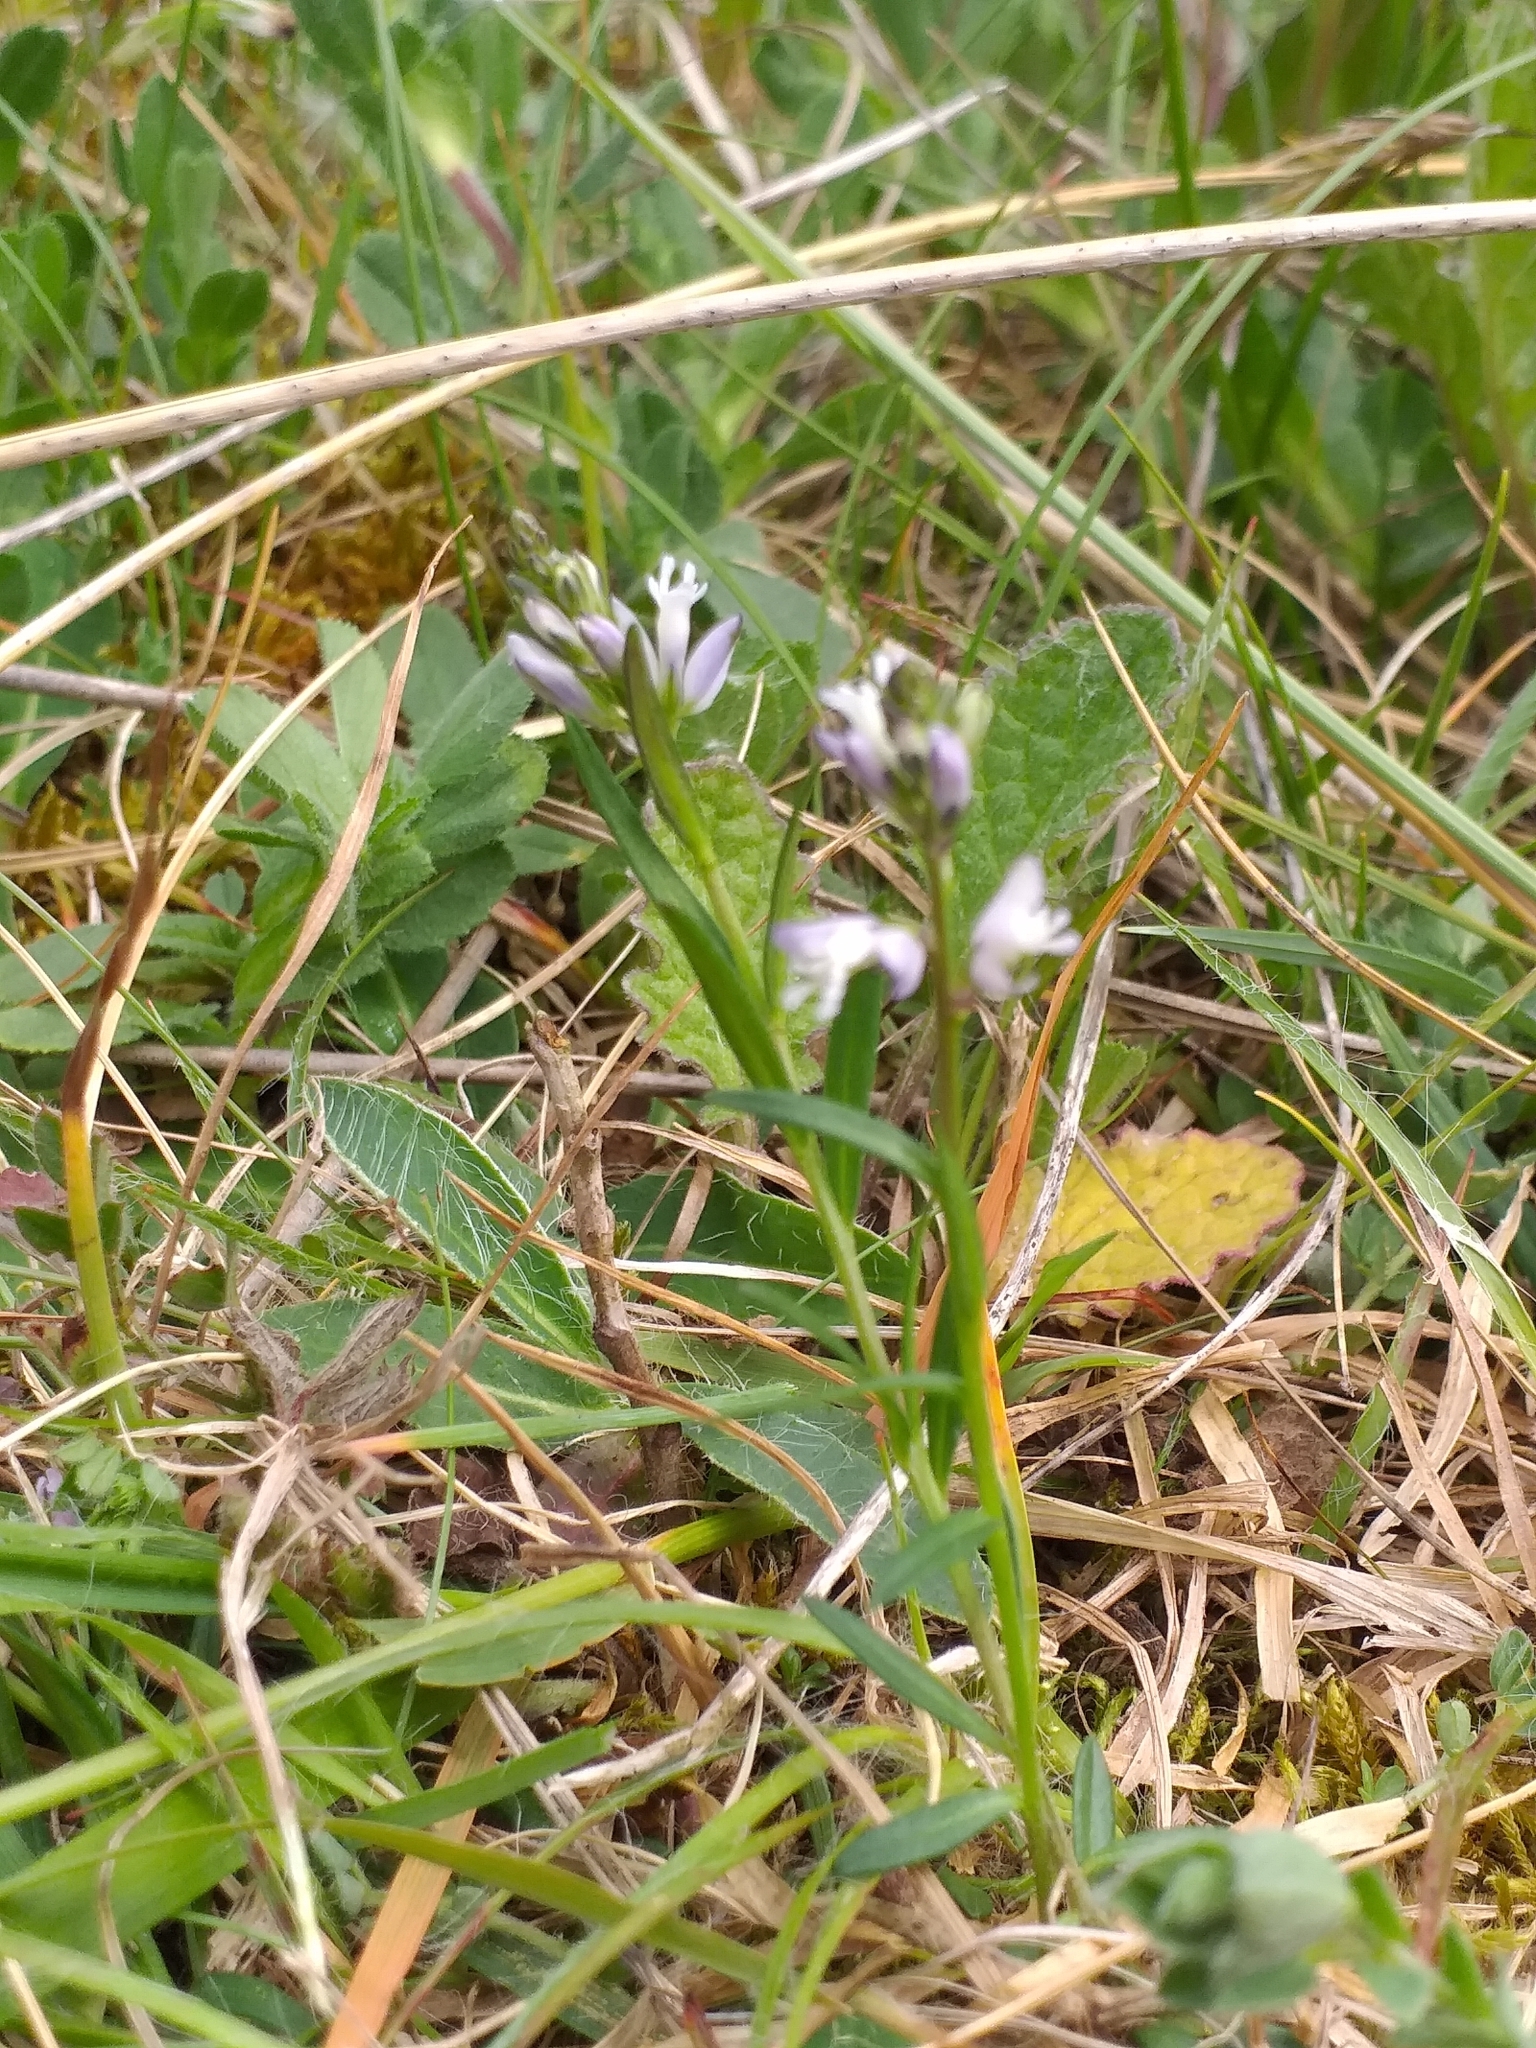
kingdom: Plantae
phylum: Tracheophyta
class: Magnoliopsida
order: Fabales
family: Polygalaceae
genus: Polygala
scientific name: Polygala vulgaris
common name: Common milkwort
